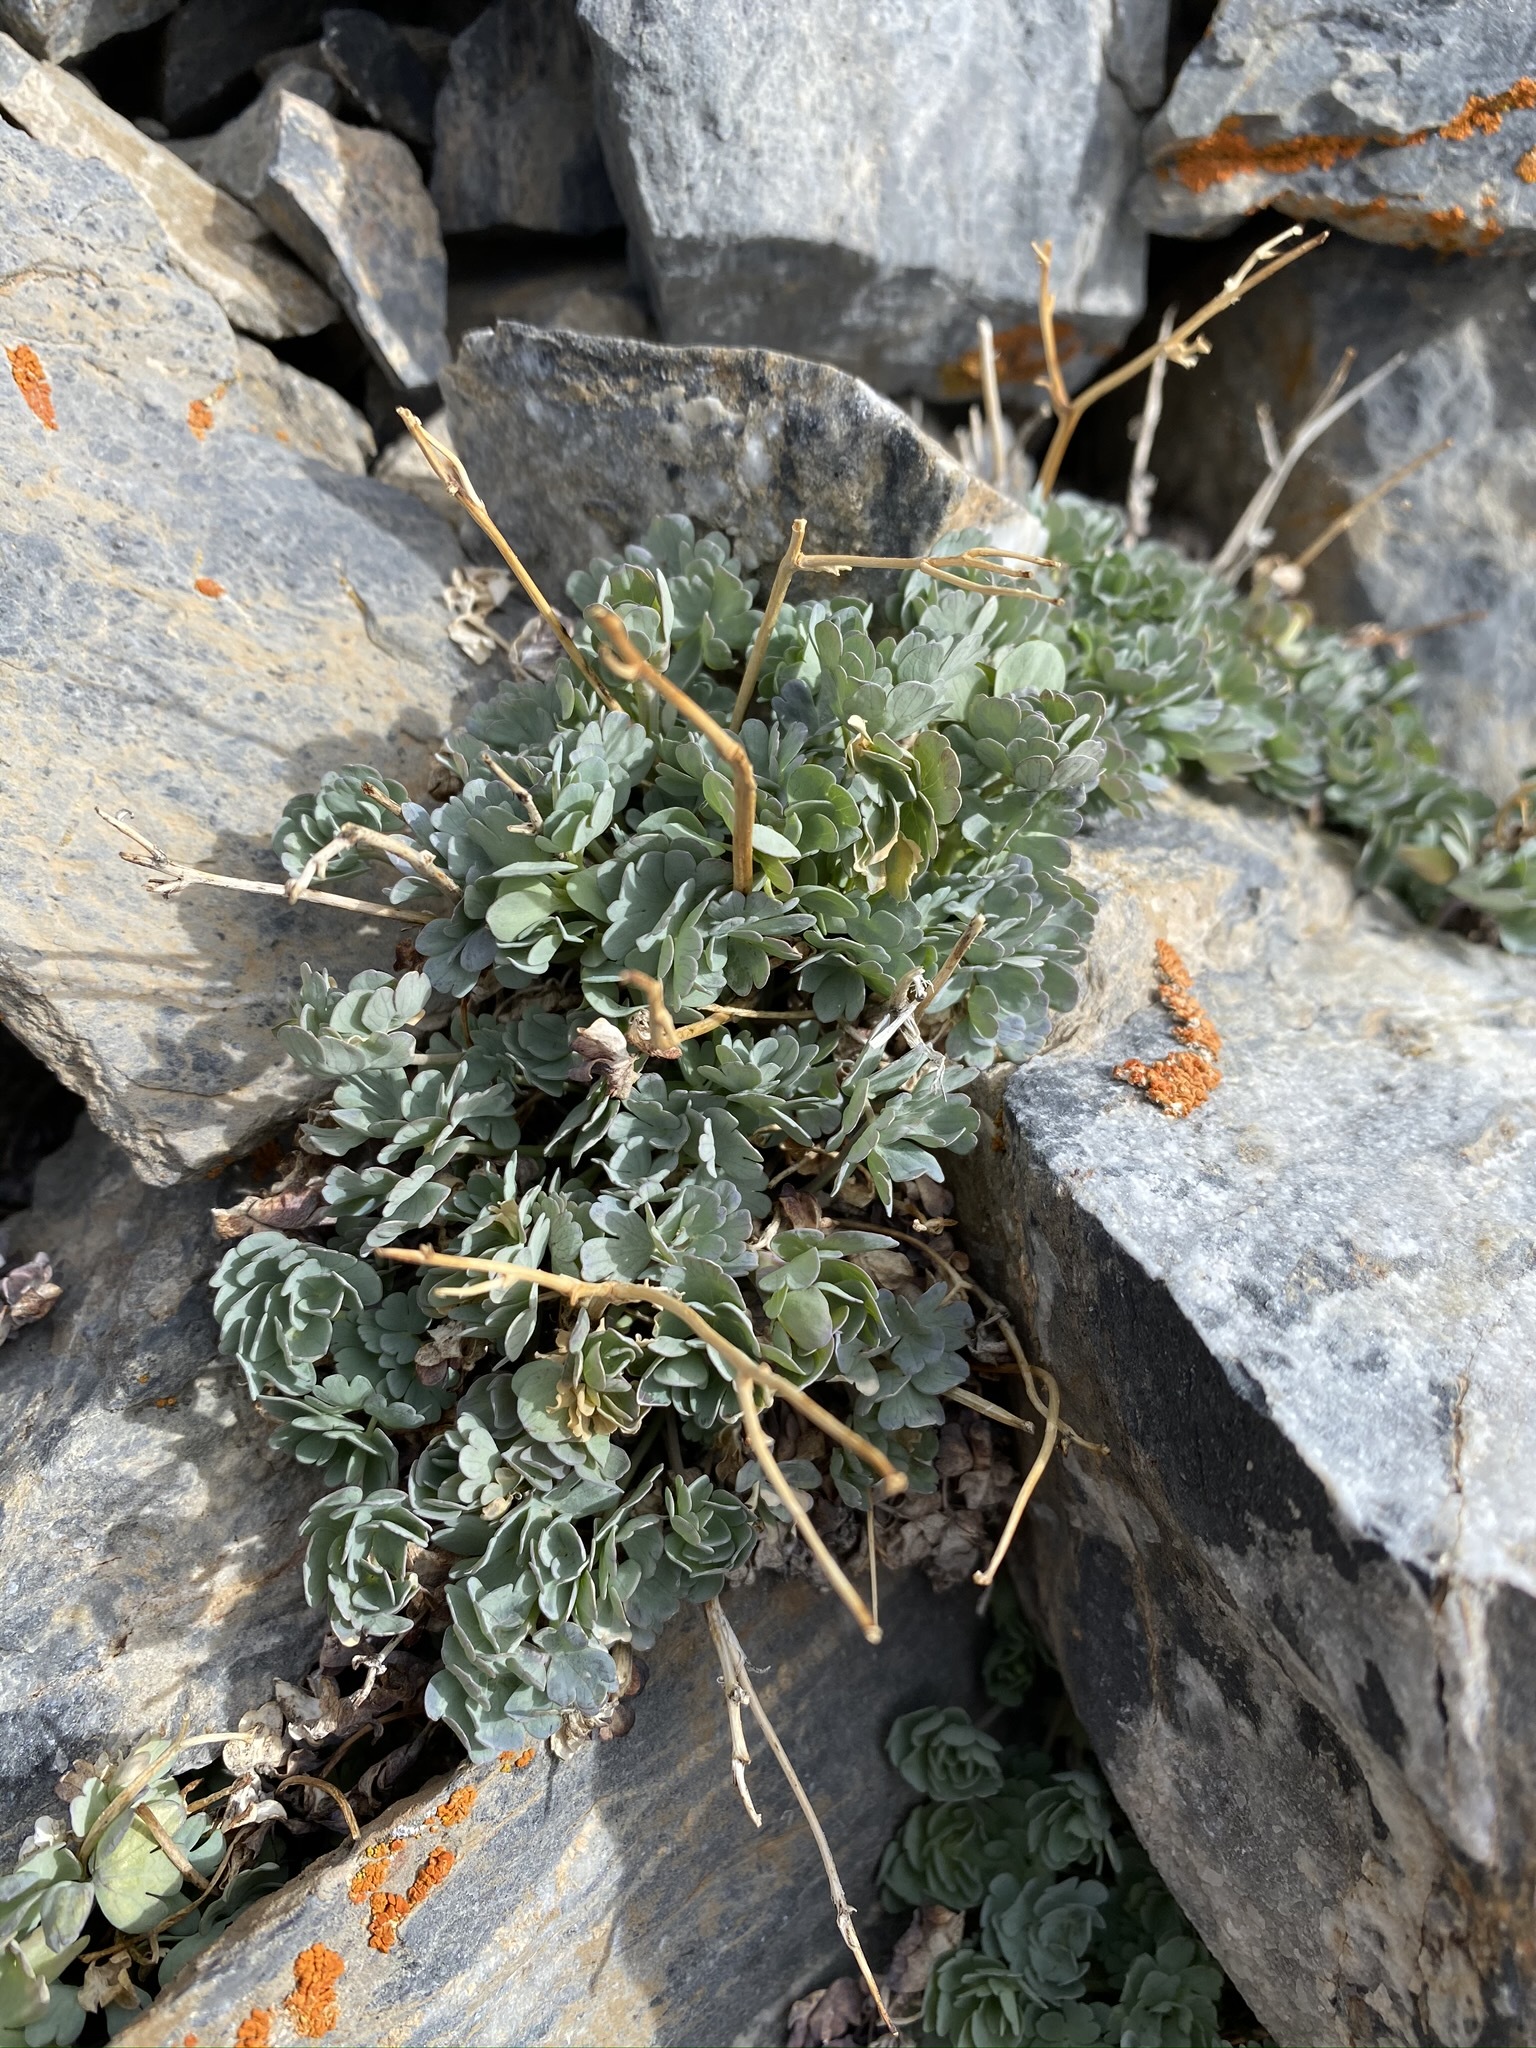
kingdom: Plantae
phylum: Tracheophyta
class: Magnoliopsida
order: Ranunculales
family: Ranunculaceae
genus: Aquilegia
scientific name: Aquilegia scopulorum
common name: Rock columbine
